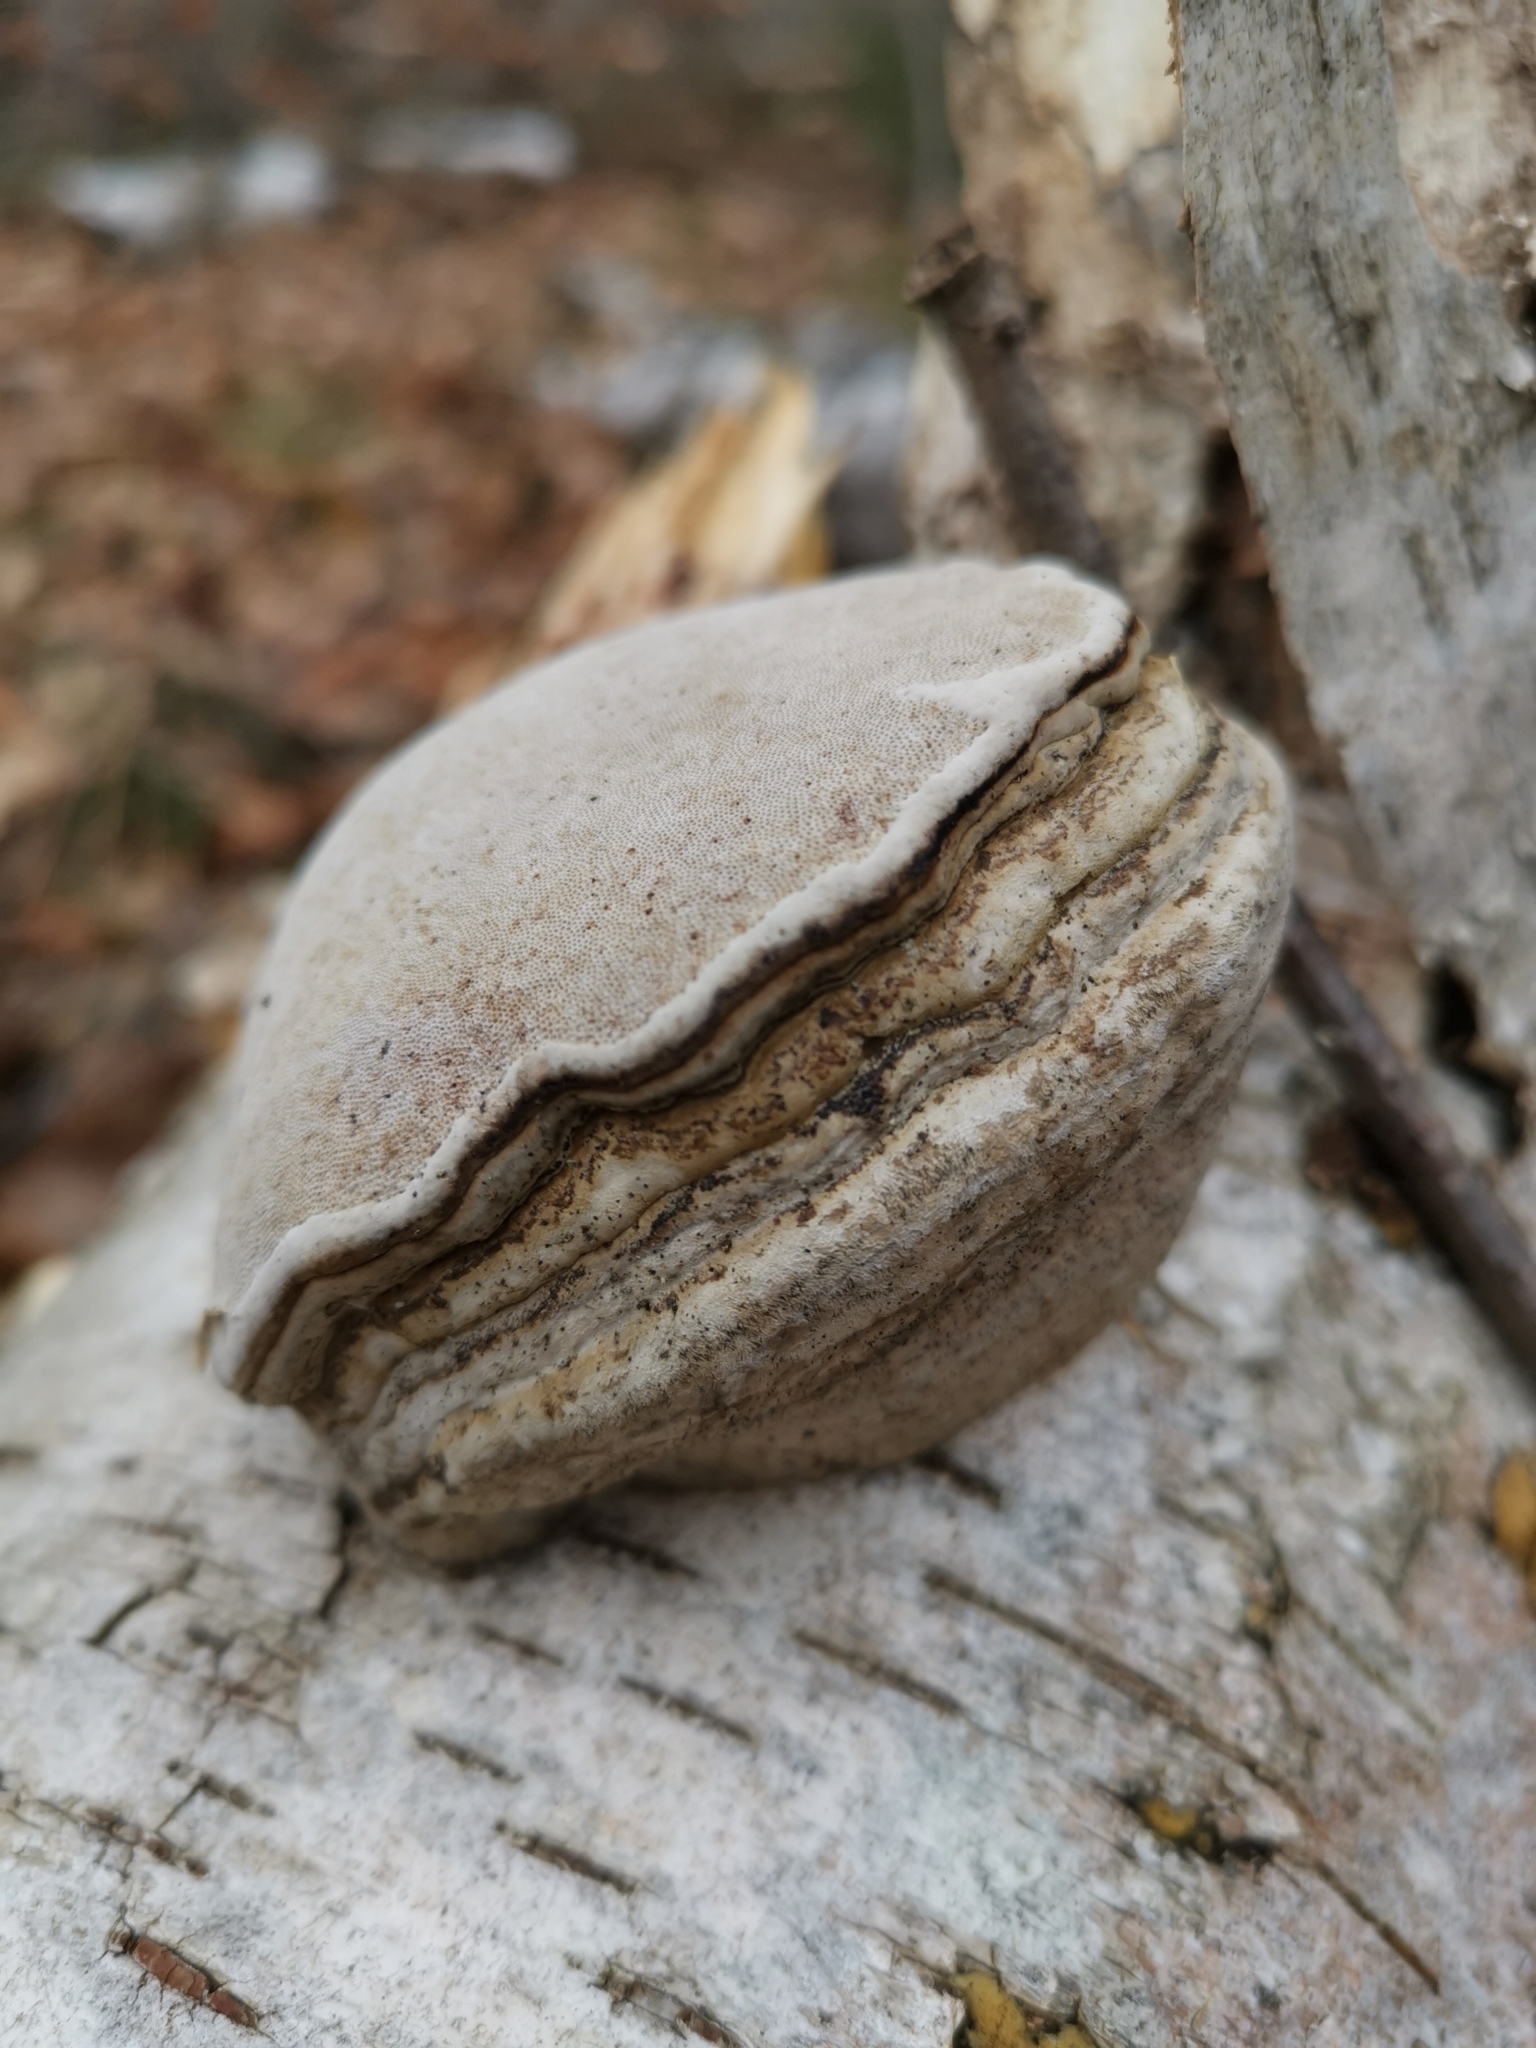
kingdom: Fungi
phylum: Basidiomycota
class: Agaricomycetes
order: Polyporales
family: Polyporaceae
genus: Fomes
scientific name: Fomes fomentarius
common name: Hoof fungus
